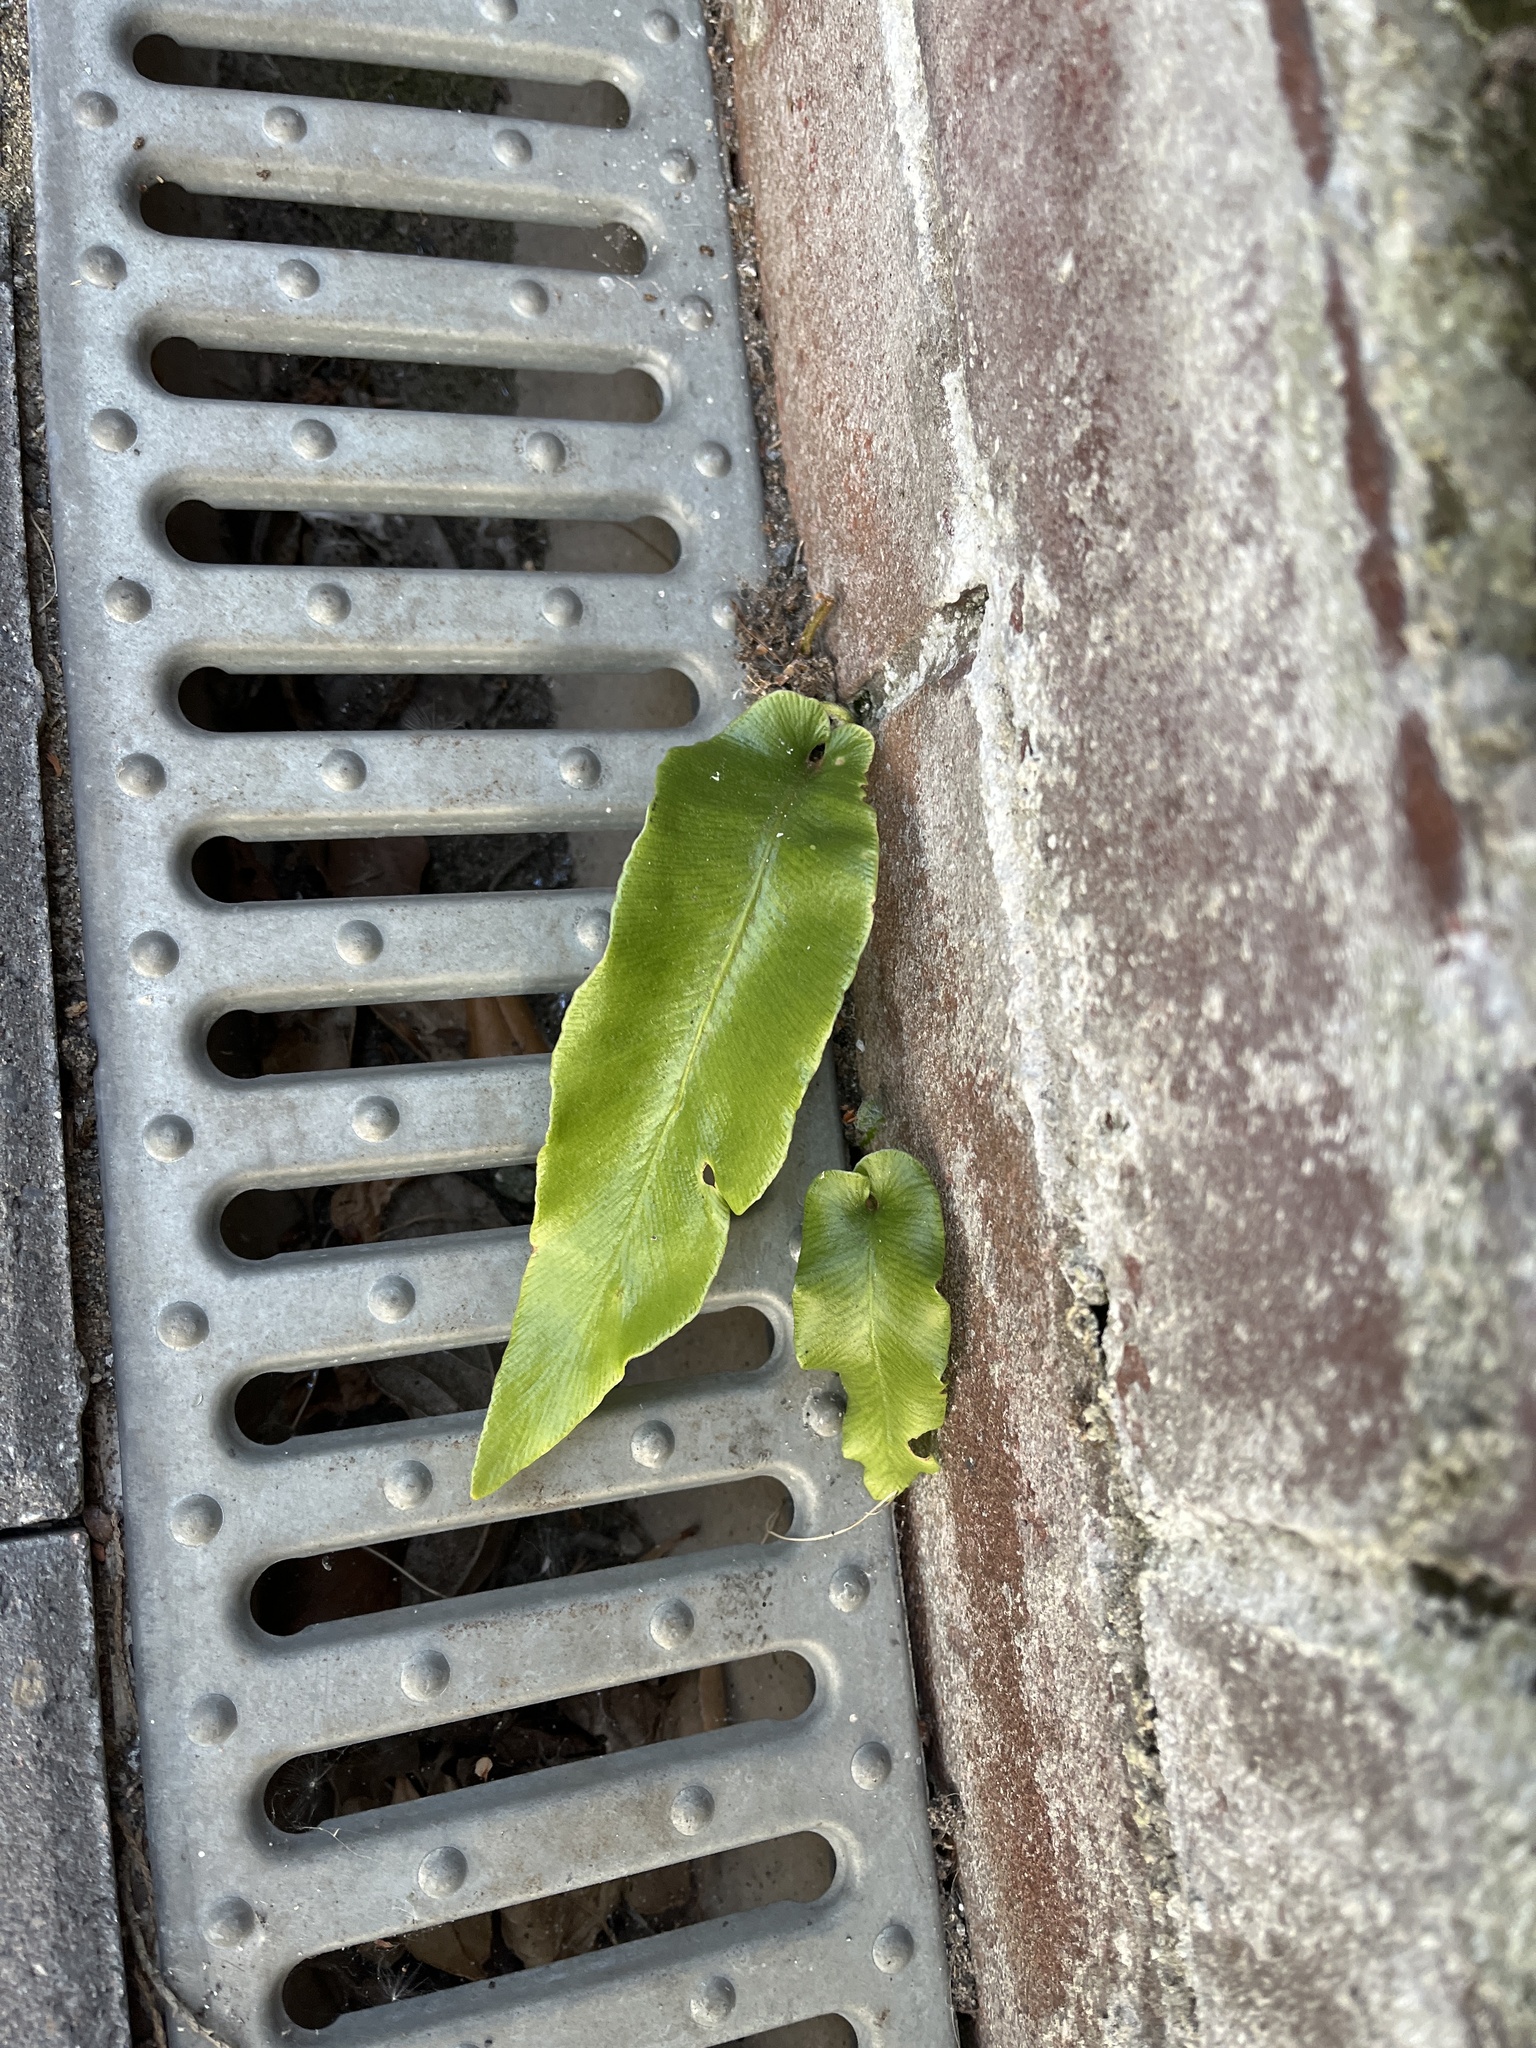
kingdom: Plantae
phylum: Tracheophyta
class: Polypodiopsida
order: Polypodiales
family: Aspleniaceae
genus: Asplenium
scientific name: Asplenium scolopendrium
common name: Hart's-tongue fern
